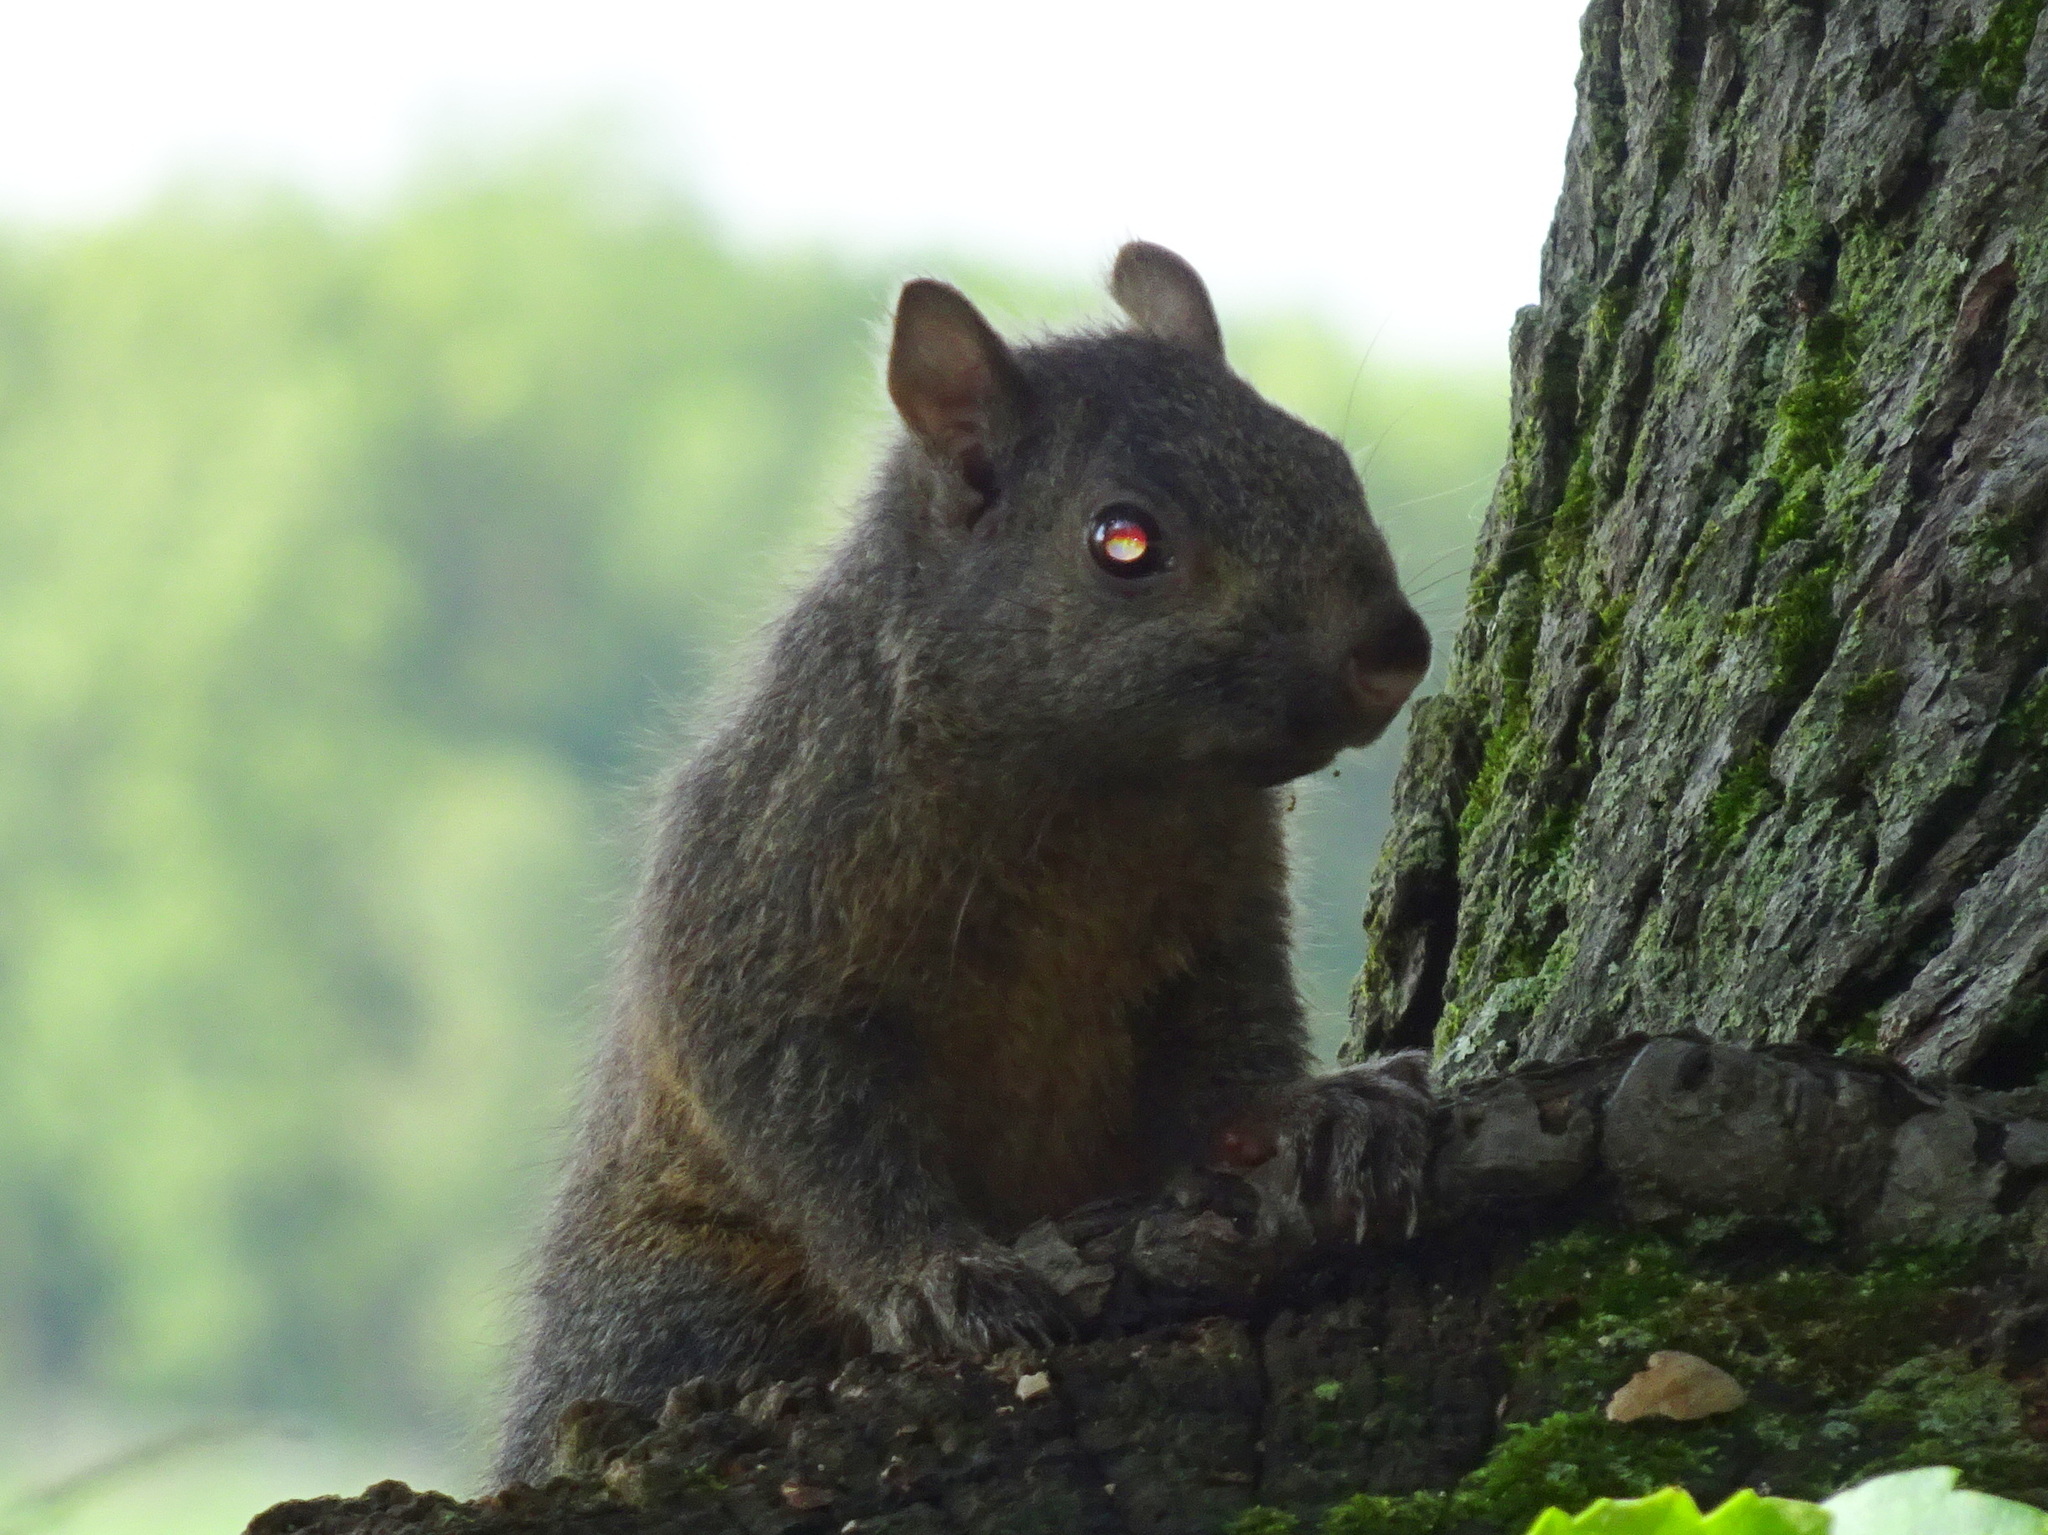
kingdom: Animalia
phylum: Chordata
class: Mammalia
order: Rodentia
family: Sciuridae
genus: Sciurus
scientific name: Sciurus carolinensis
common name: Eastern gray squirrel
